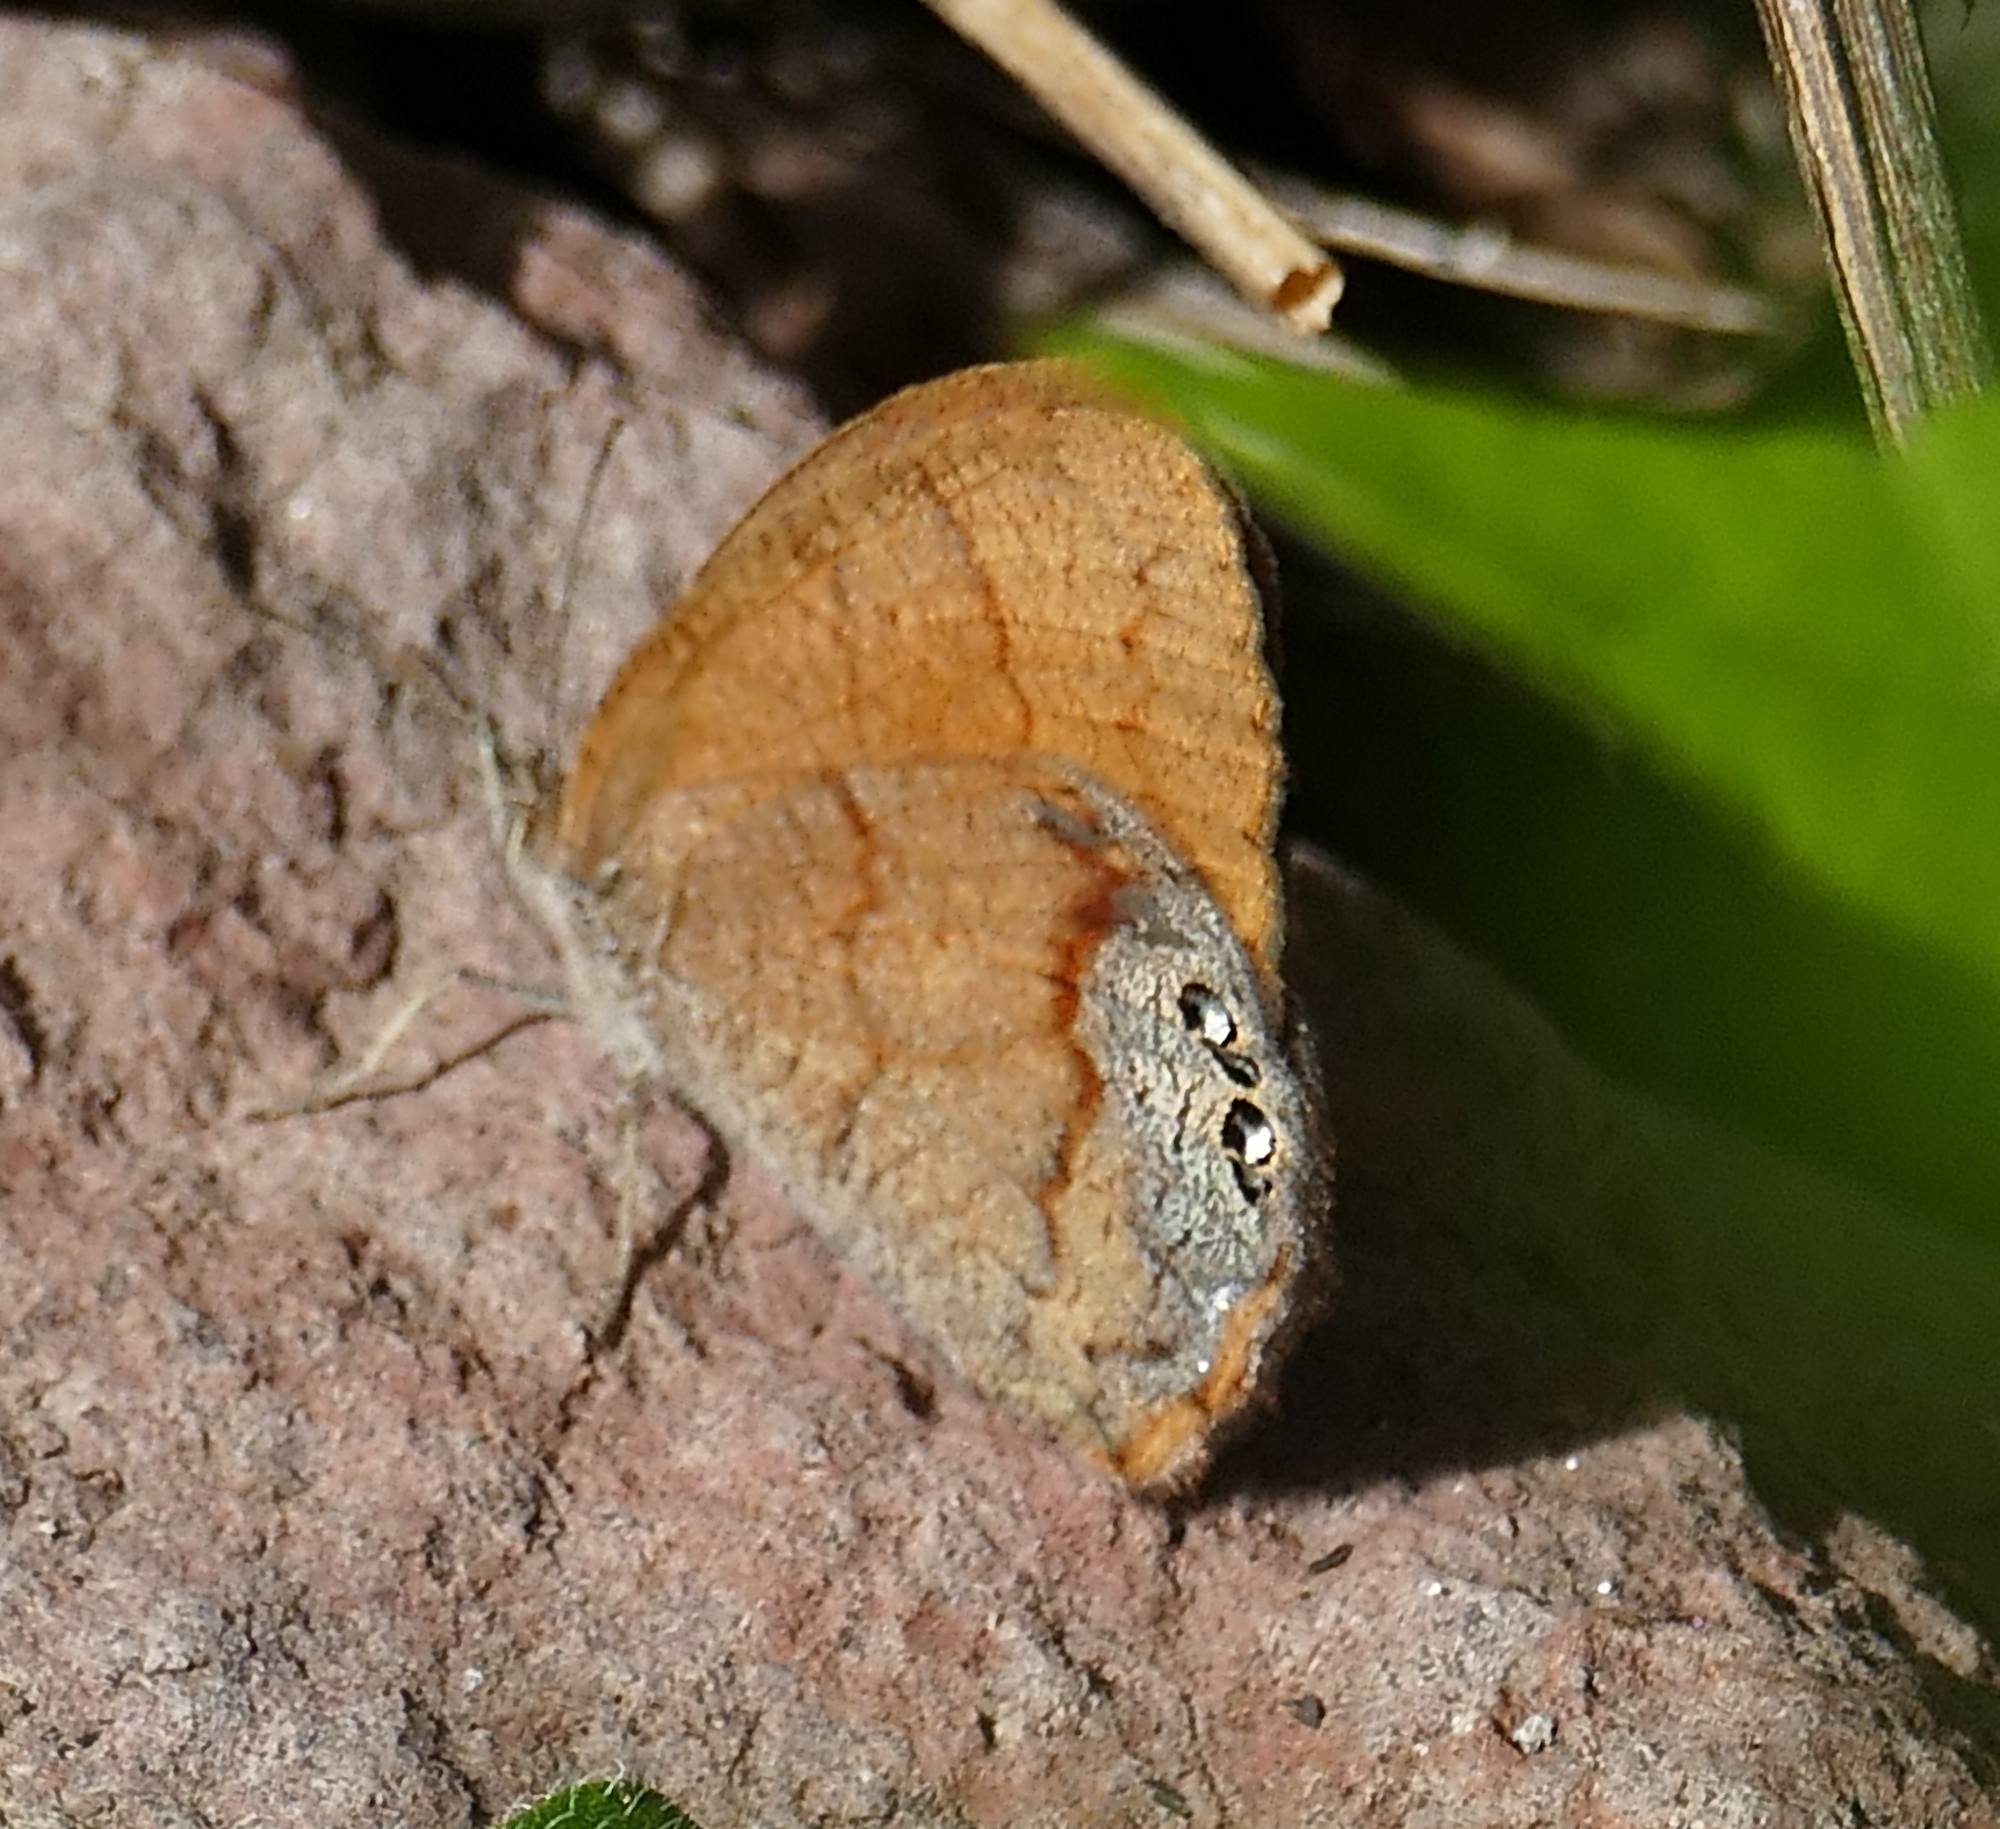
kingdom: Animalia
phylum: Arthropoda
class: Insecta
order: Lepidoptera
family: Nymphalidae
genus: Euptychia
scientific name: Euptychia Cyllopsis pertepida
